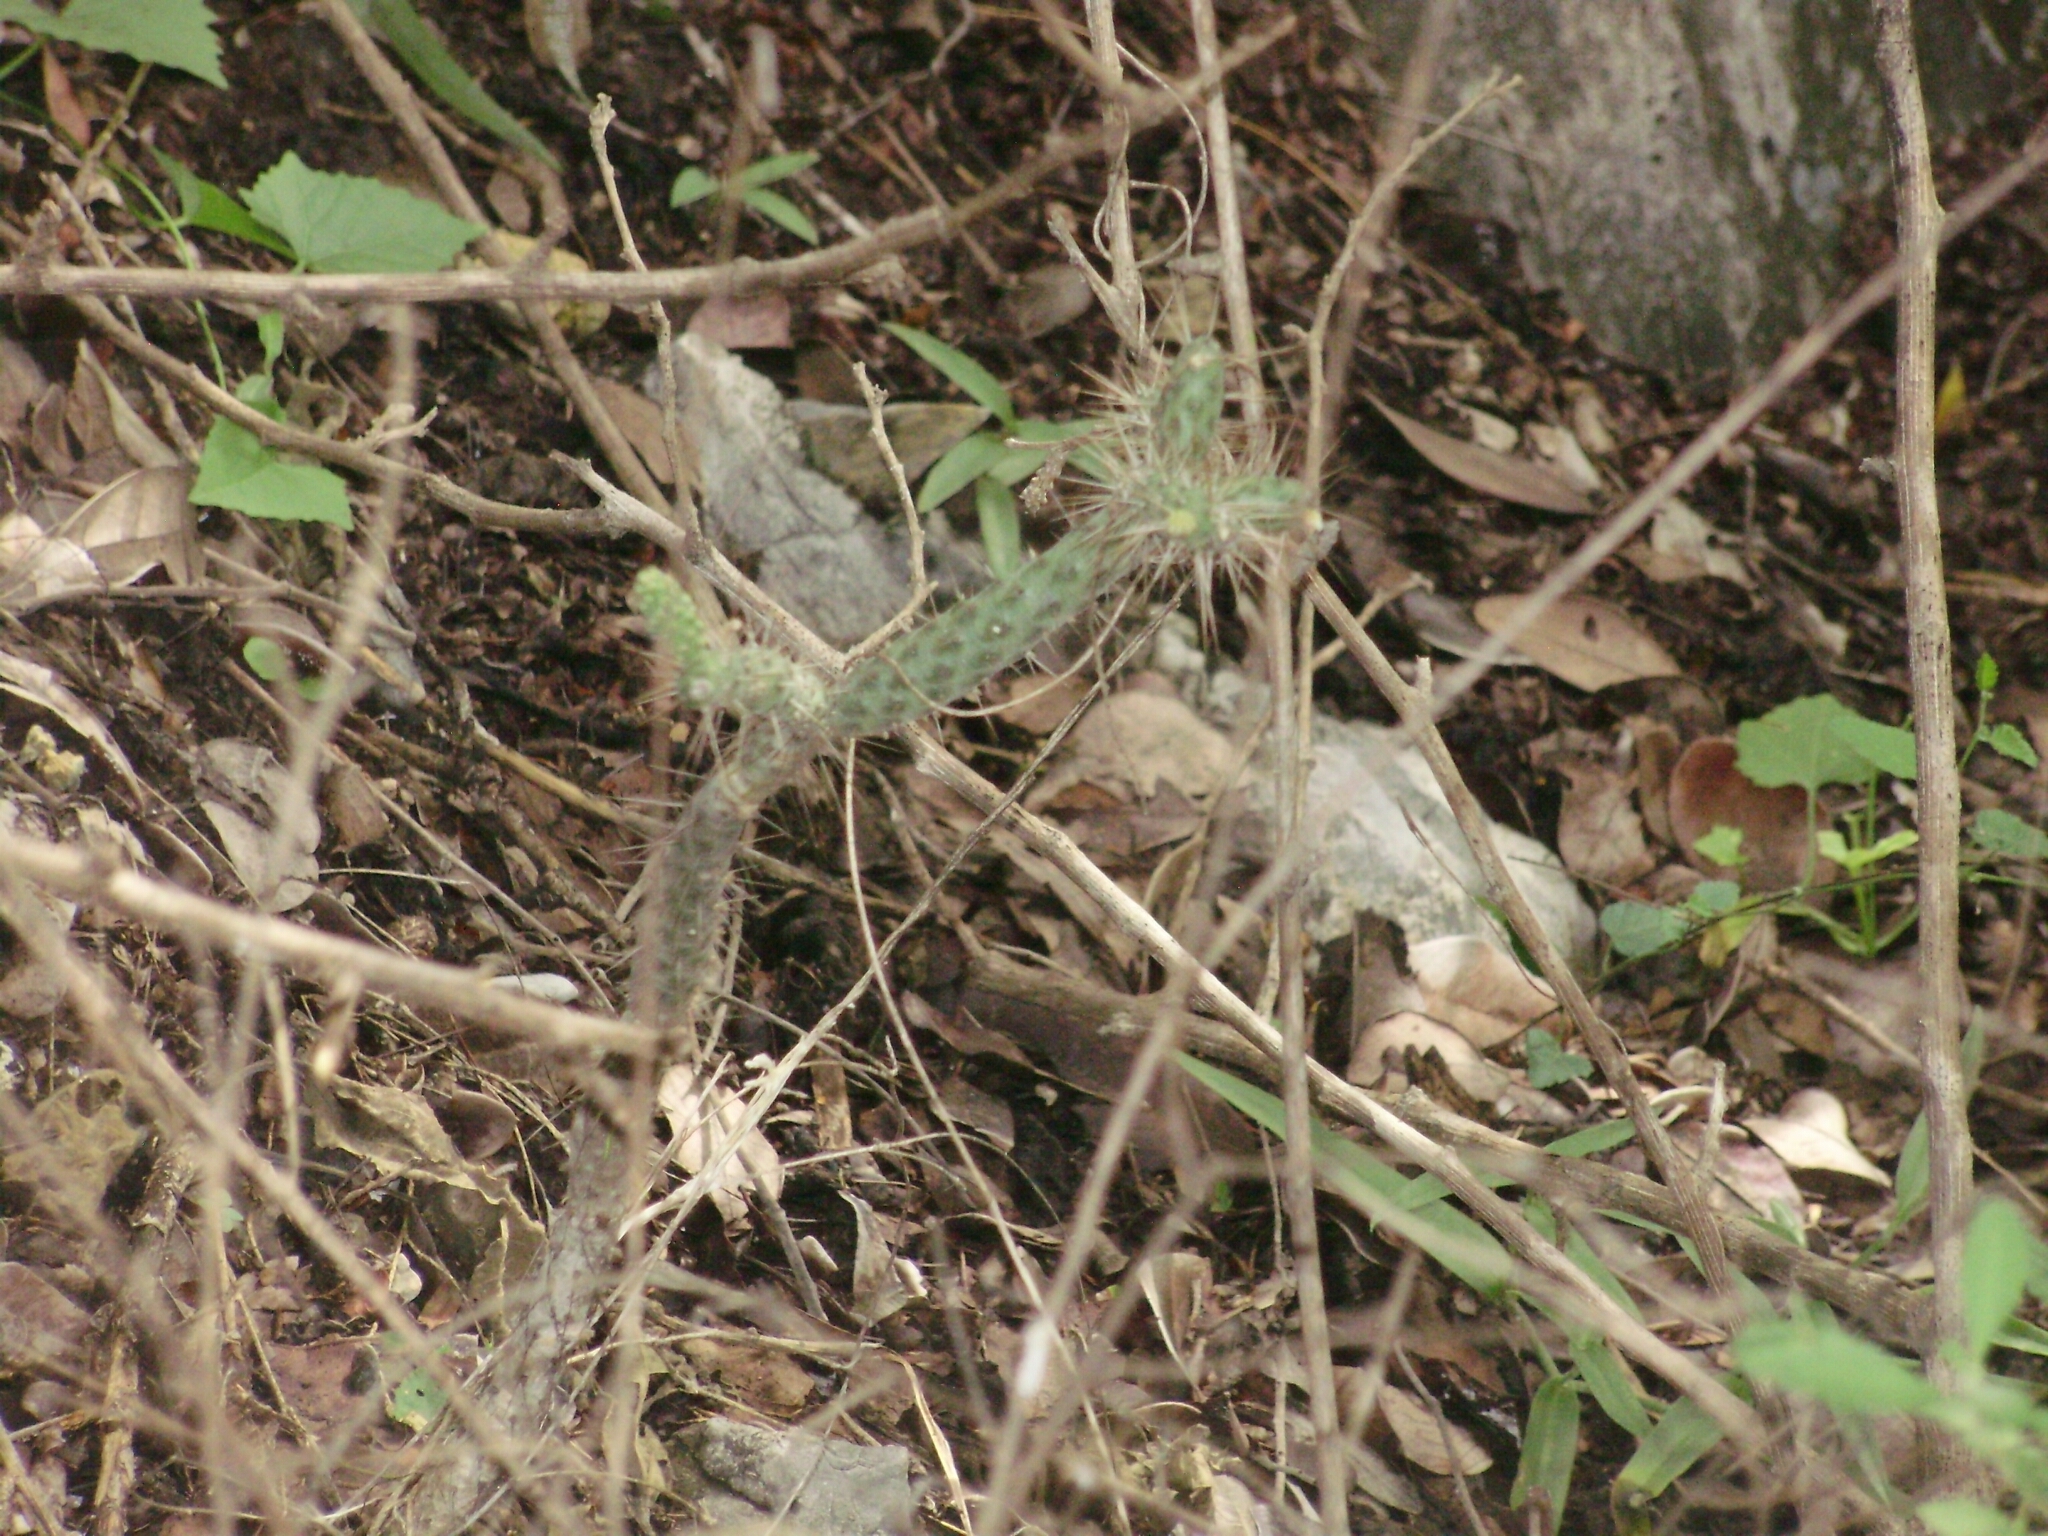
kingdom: Plantae
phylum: Tracheophyta
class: Magnoliopsida
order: Caryophyllales
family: Cactaceae
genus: Opuntia
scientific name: Opuntia pubescens
